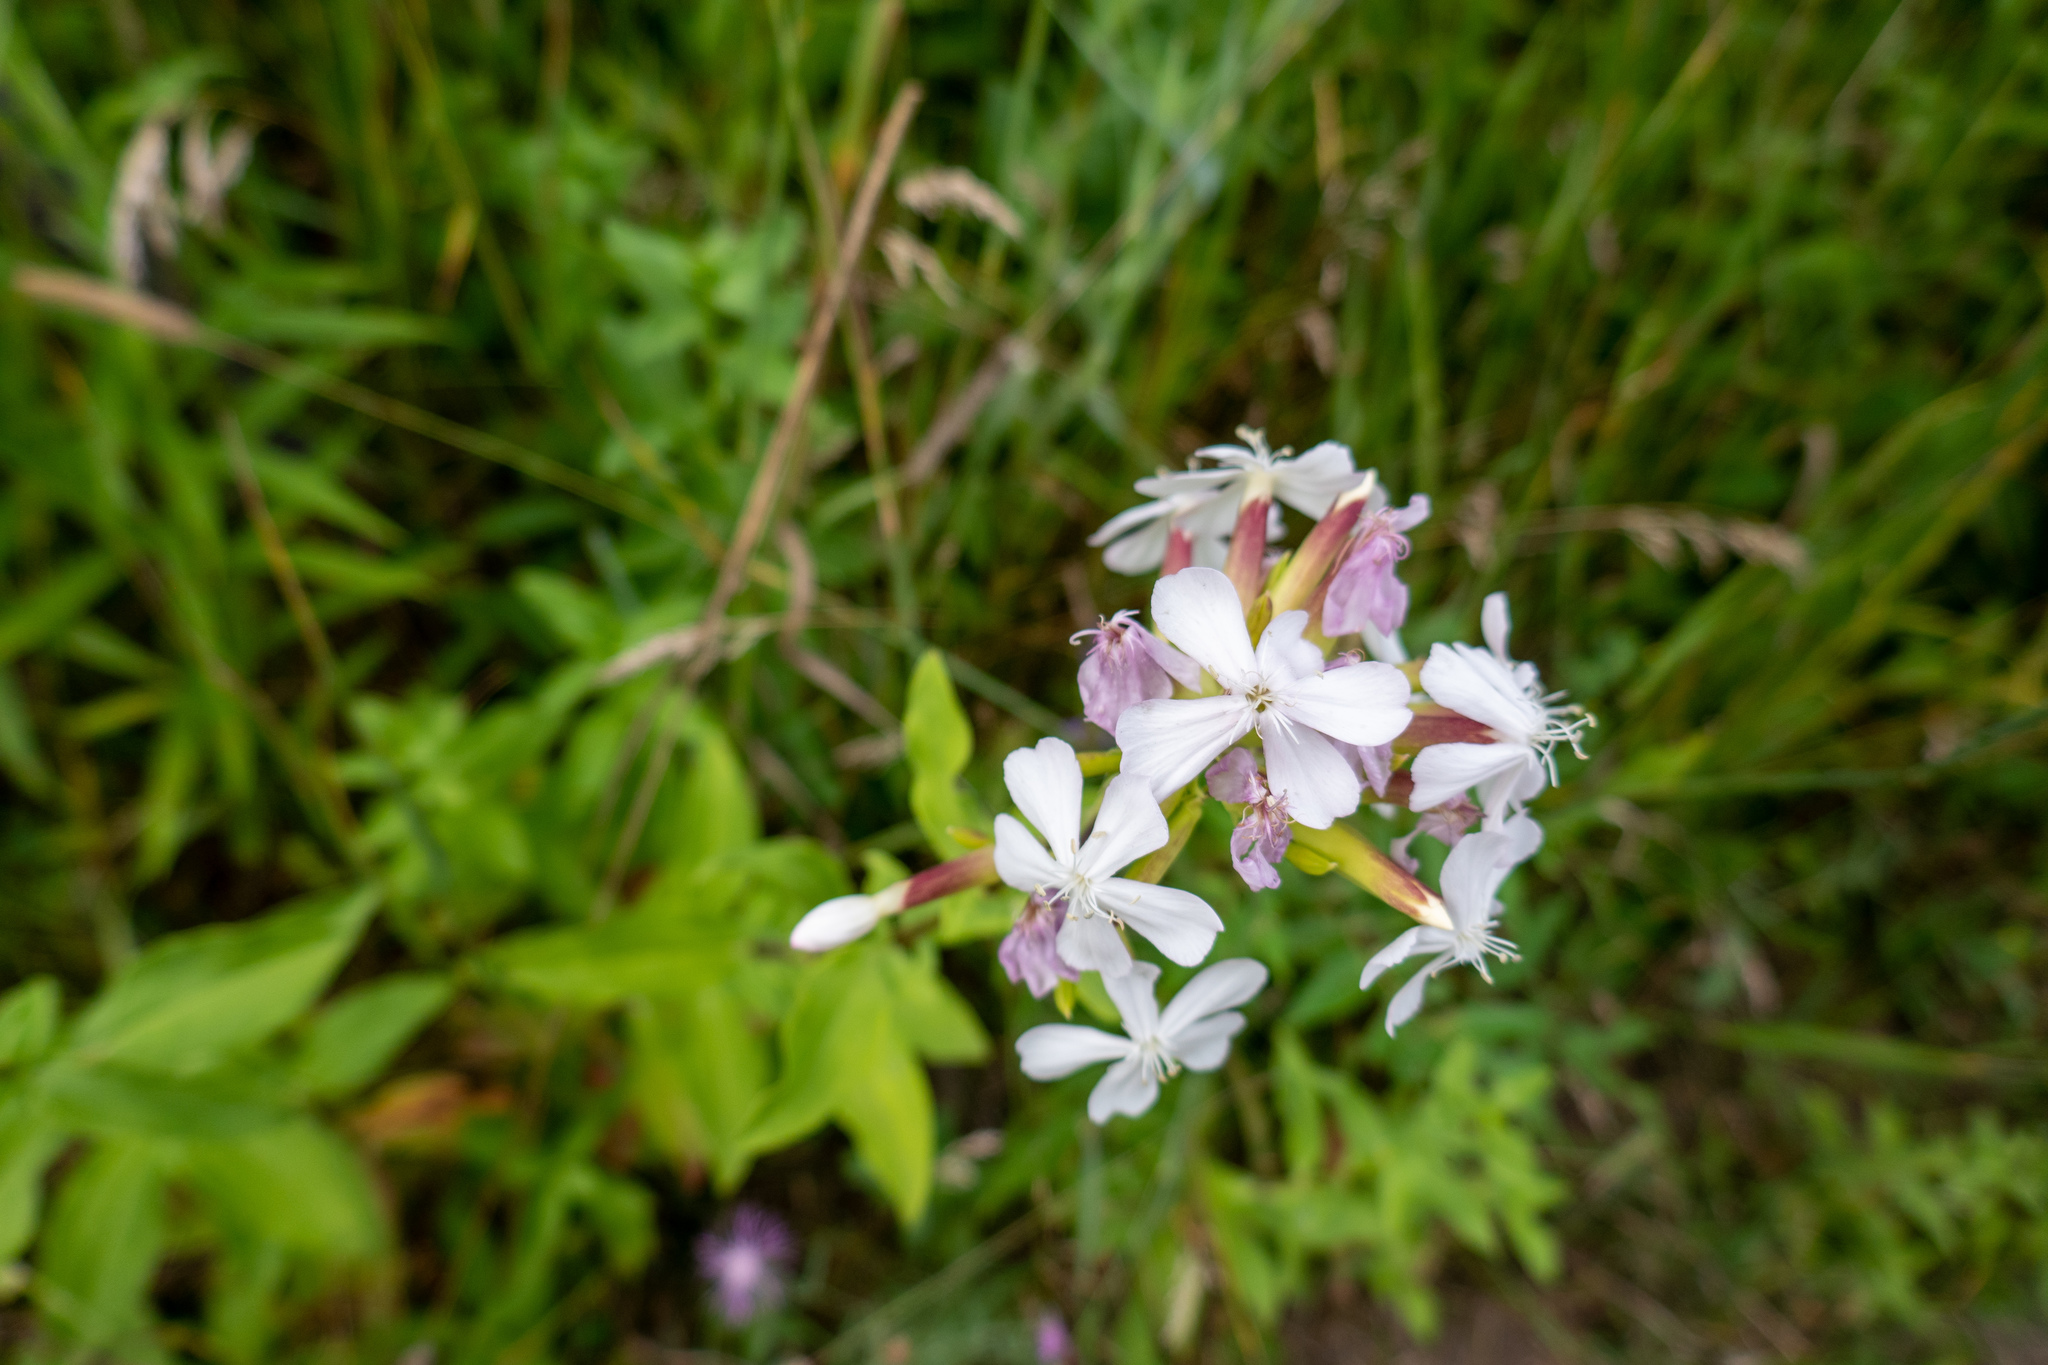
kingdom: Plantae
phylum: Tracheophyta
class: Magnoliopsida
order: Caryophyllales
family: Caryophyllaceae
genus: Saponaria
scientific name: Saponaria officinalis
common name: Soapwort
